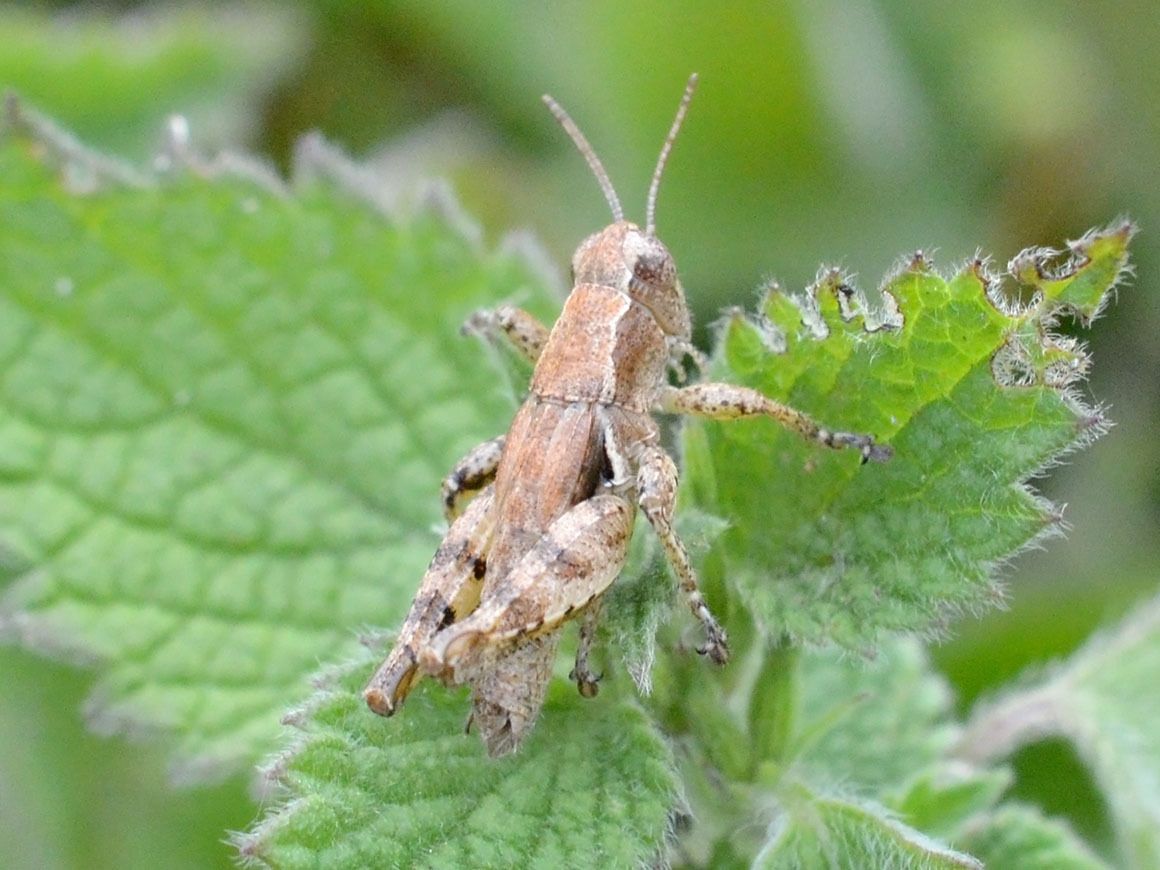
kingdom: Animalia
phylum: Arthropoda
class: Insecta
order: Orthoptera
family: Acrididae
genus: Pezotettix
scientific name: Pezotettix giornae
